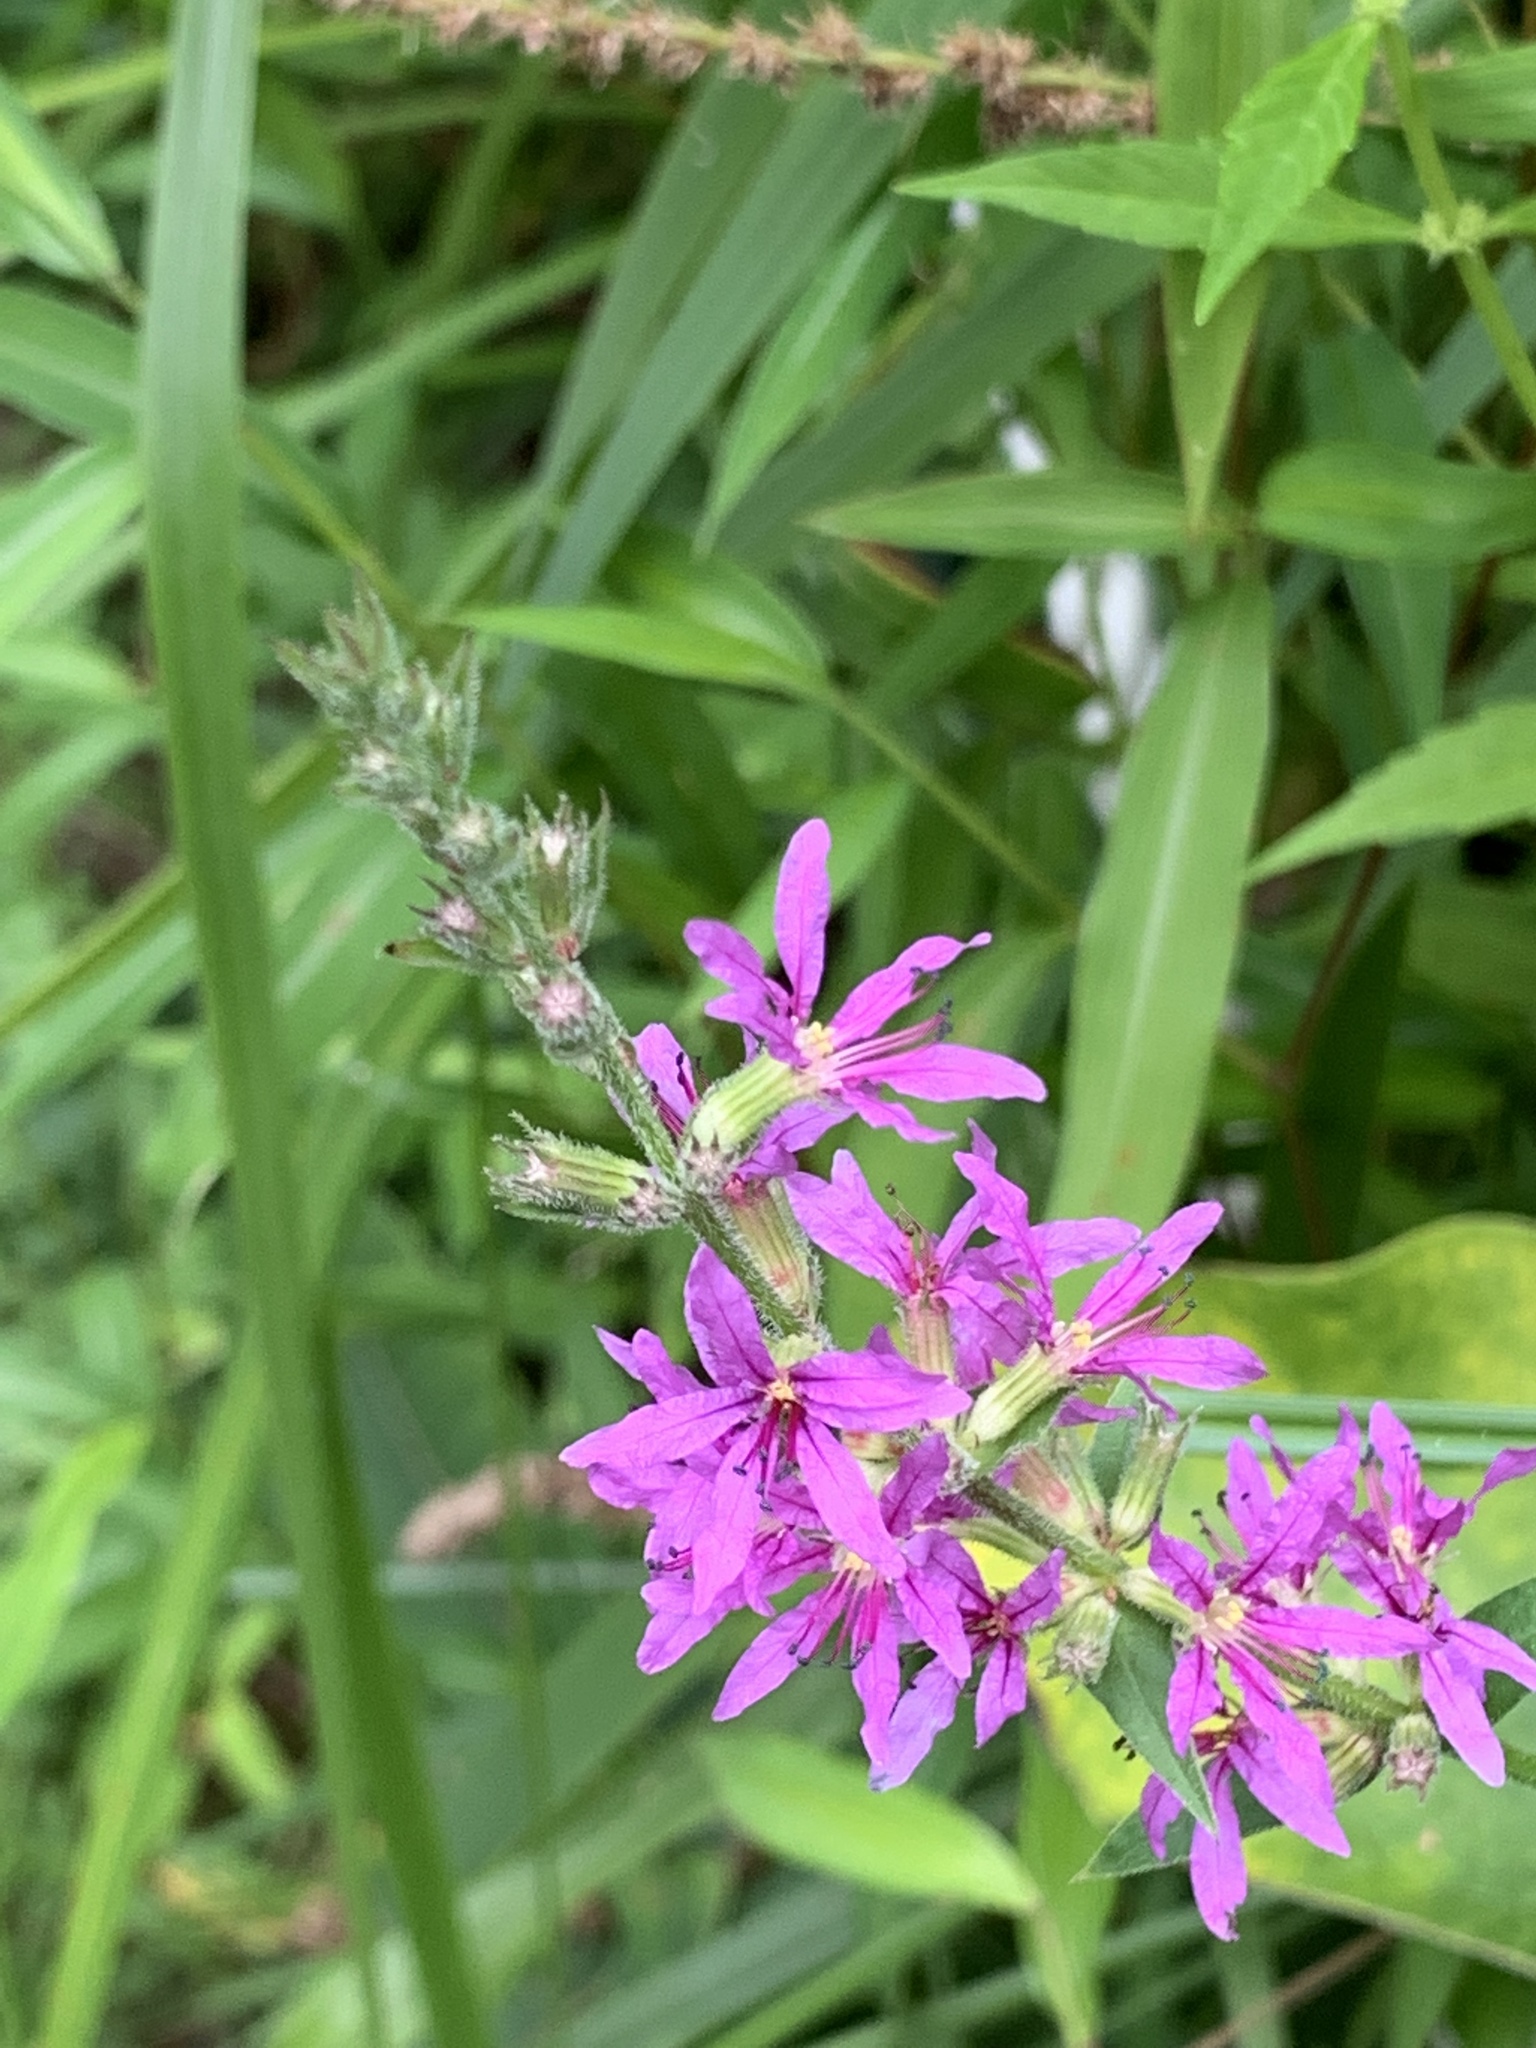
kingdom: Plantae
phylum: Tracheophyta
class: Magnoliopsida
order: Myrtales
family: Lythraceae
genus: Lythrum
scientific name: Lythrum salicaria
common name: Purple loosestrife
